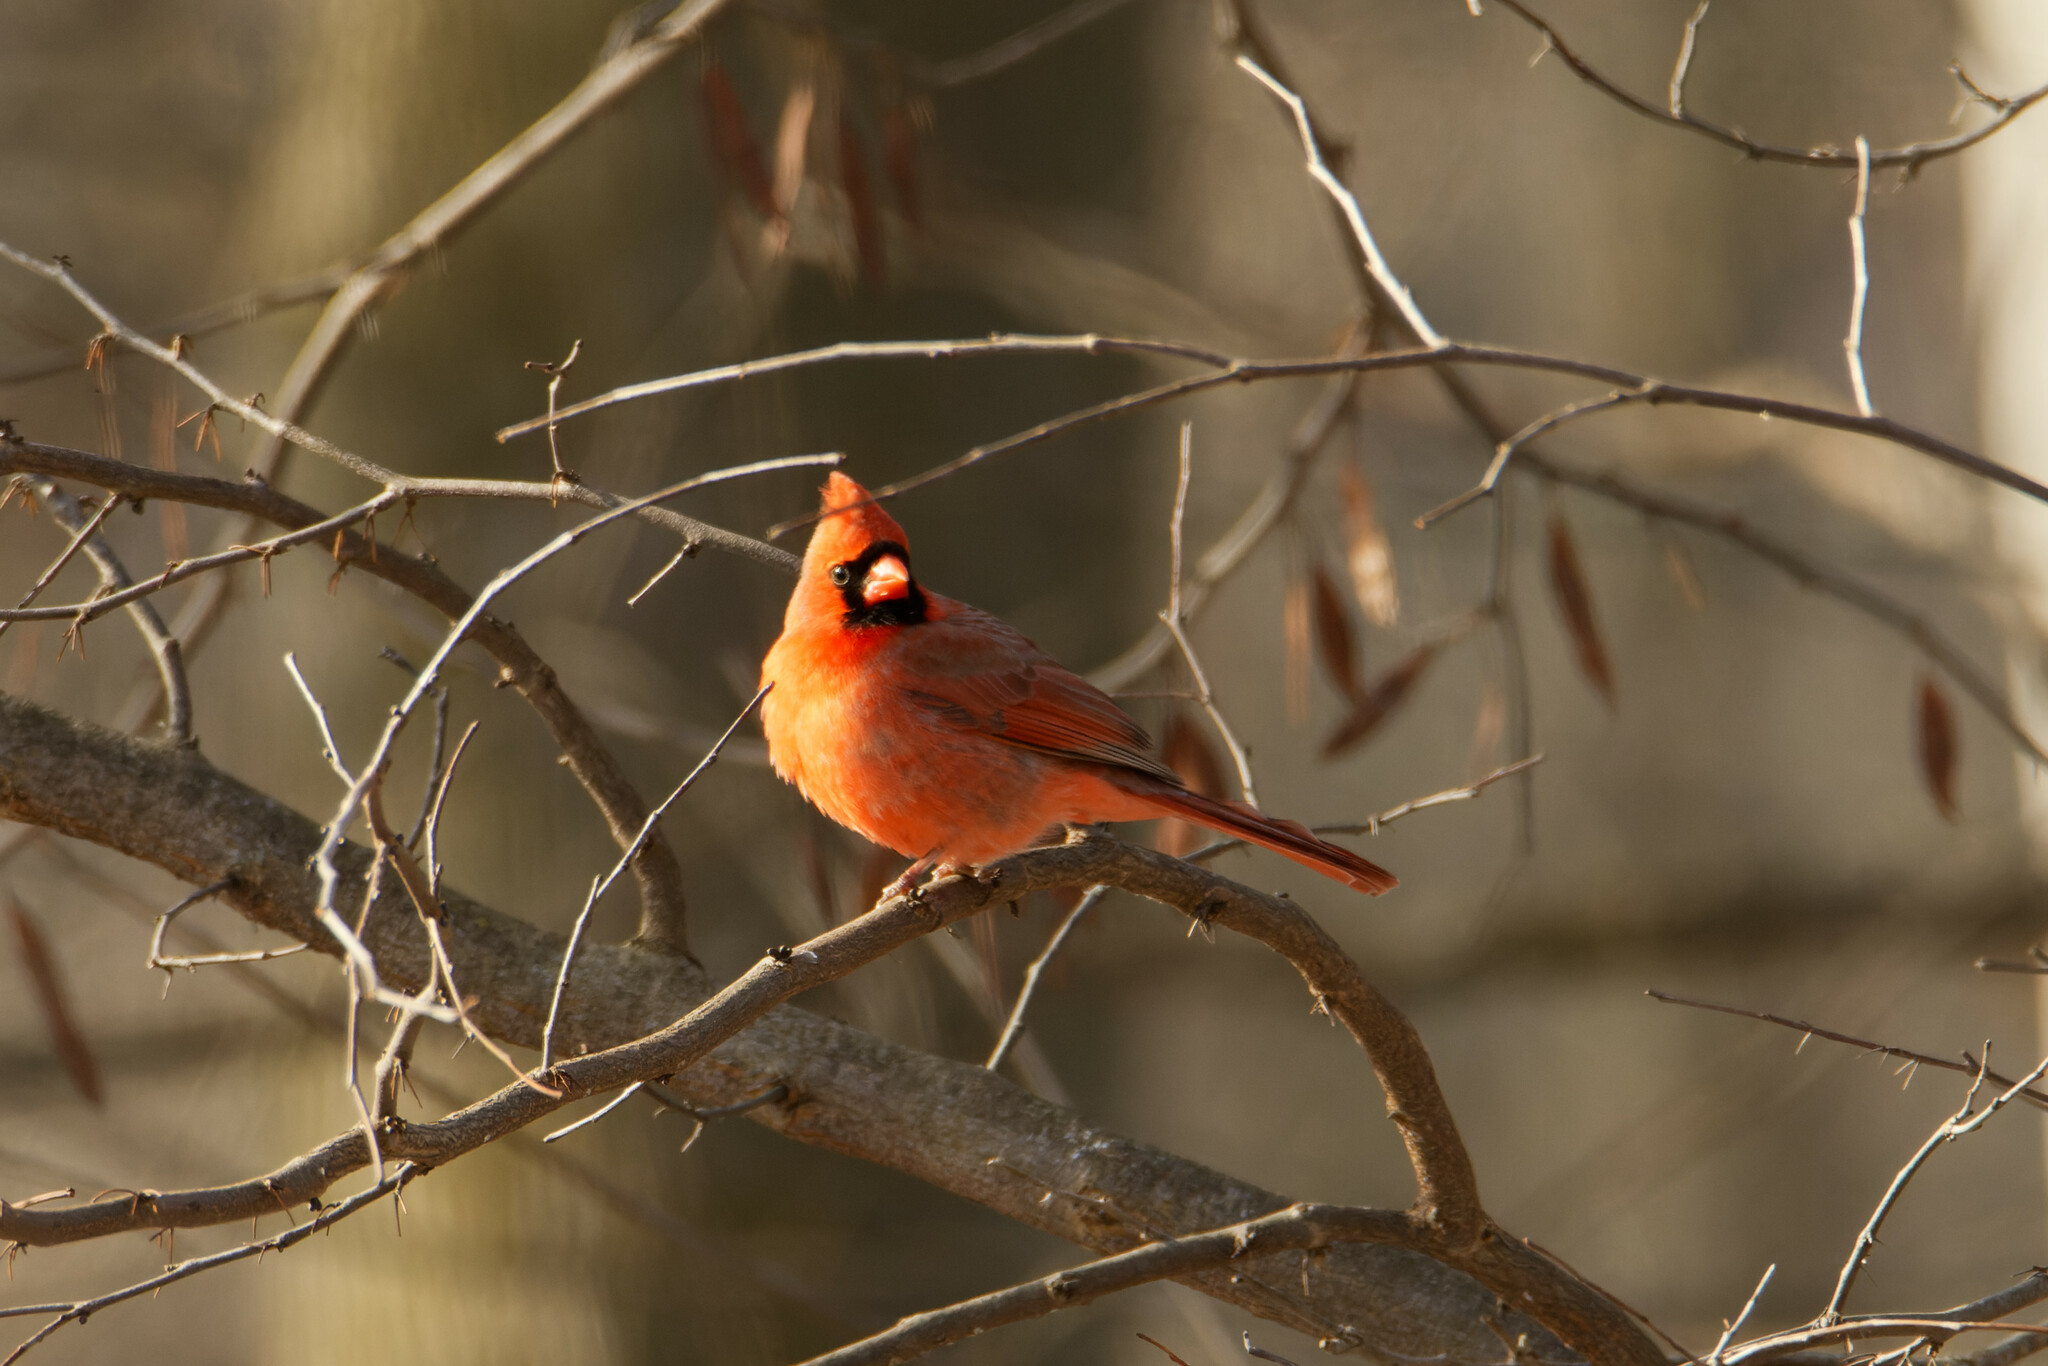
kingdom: Animalia
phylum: Chordata
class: Aves
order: Passeriformes
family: Cardinalidae
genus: Cardinalis
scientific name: Cardinalis cardinalis
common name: Northern cardinal
